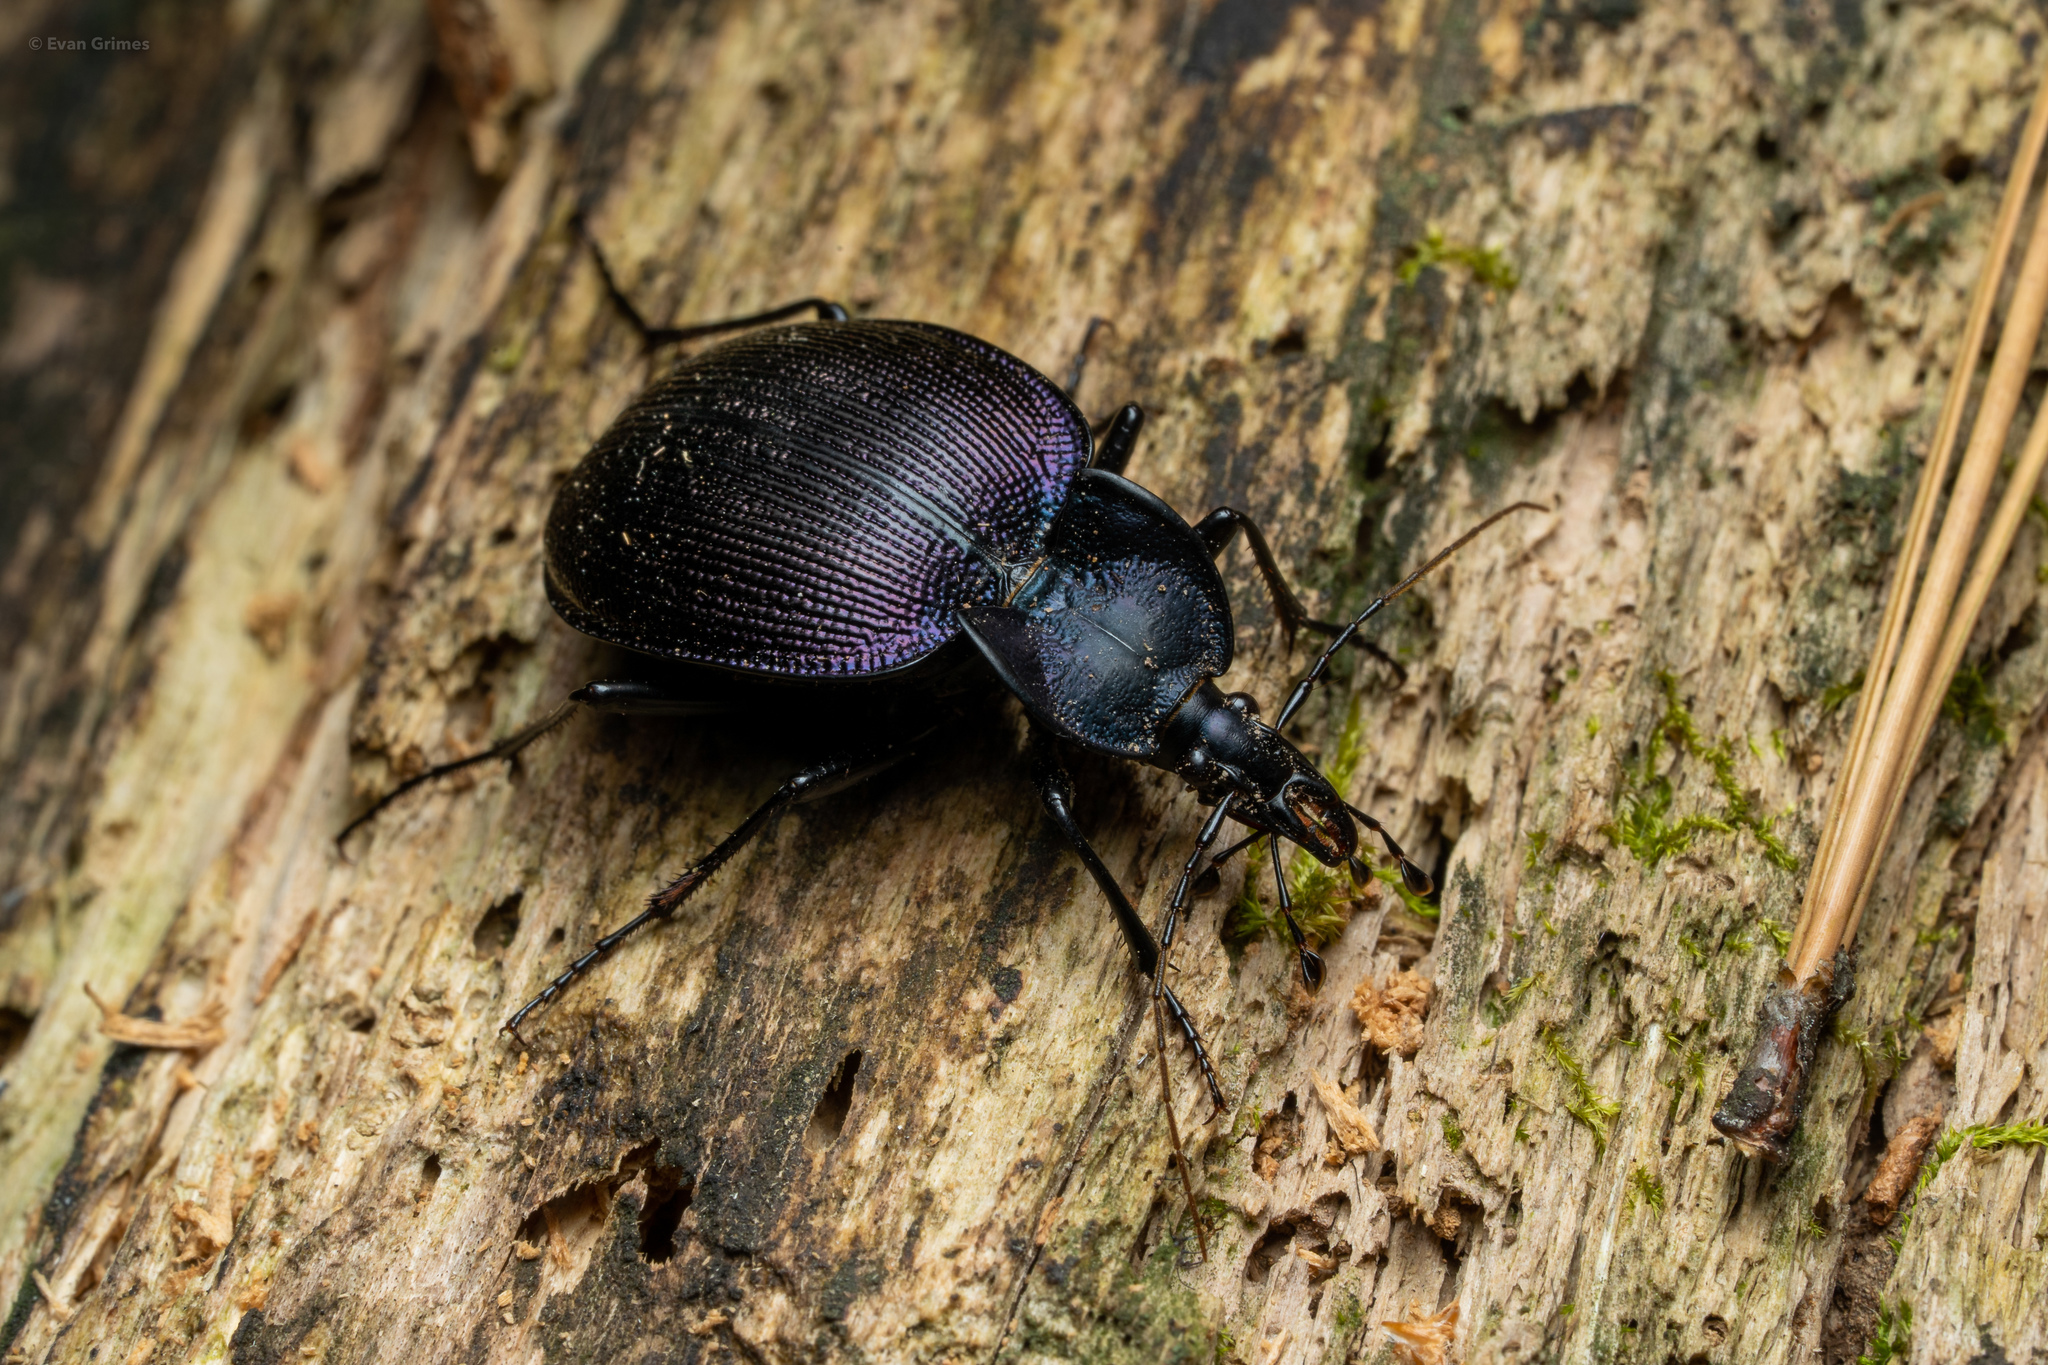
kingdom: Animalia
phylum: Arthropoda
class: Insecta
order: Coleoptera
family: Carabidae
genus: Scaphinotus
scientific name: Scaphinotus unicolor
